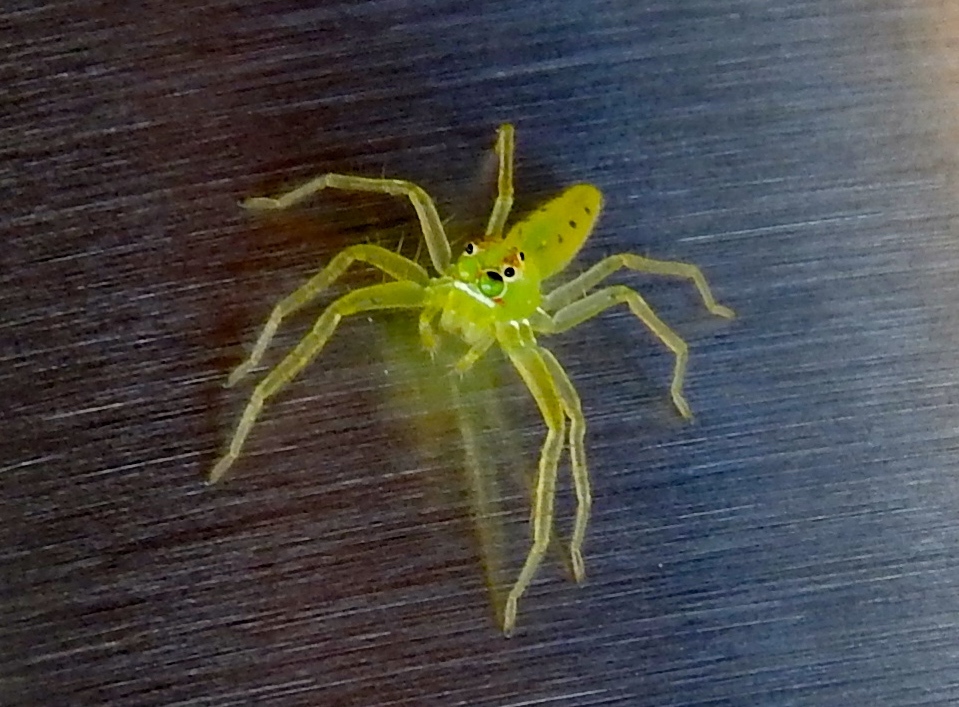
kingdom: Animalia
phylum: Arthropoda
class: Arachnida
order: Araneae
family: Salticidae
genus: Lyssomanes
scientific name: Lyssomanes
